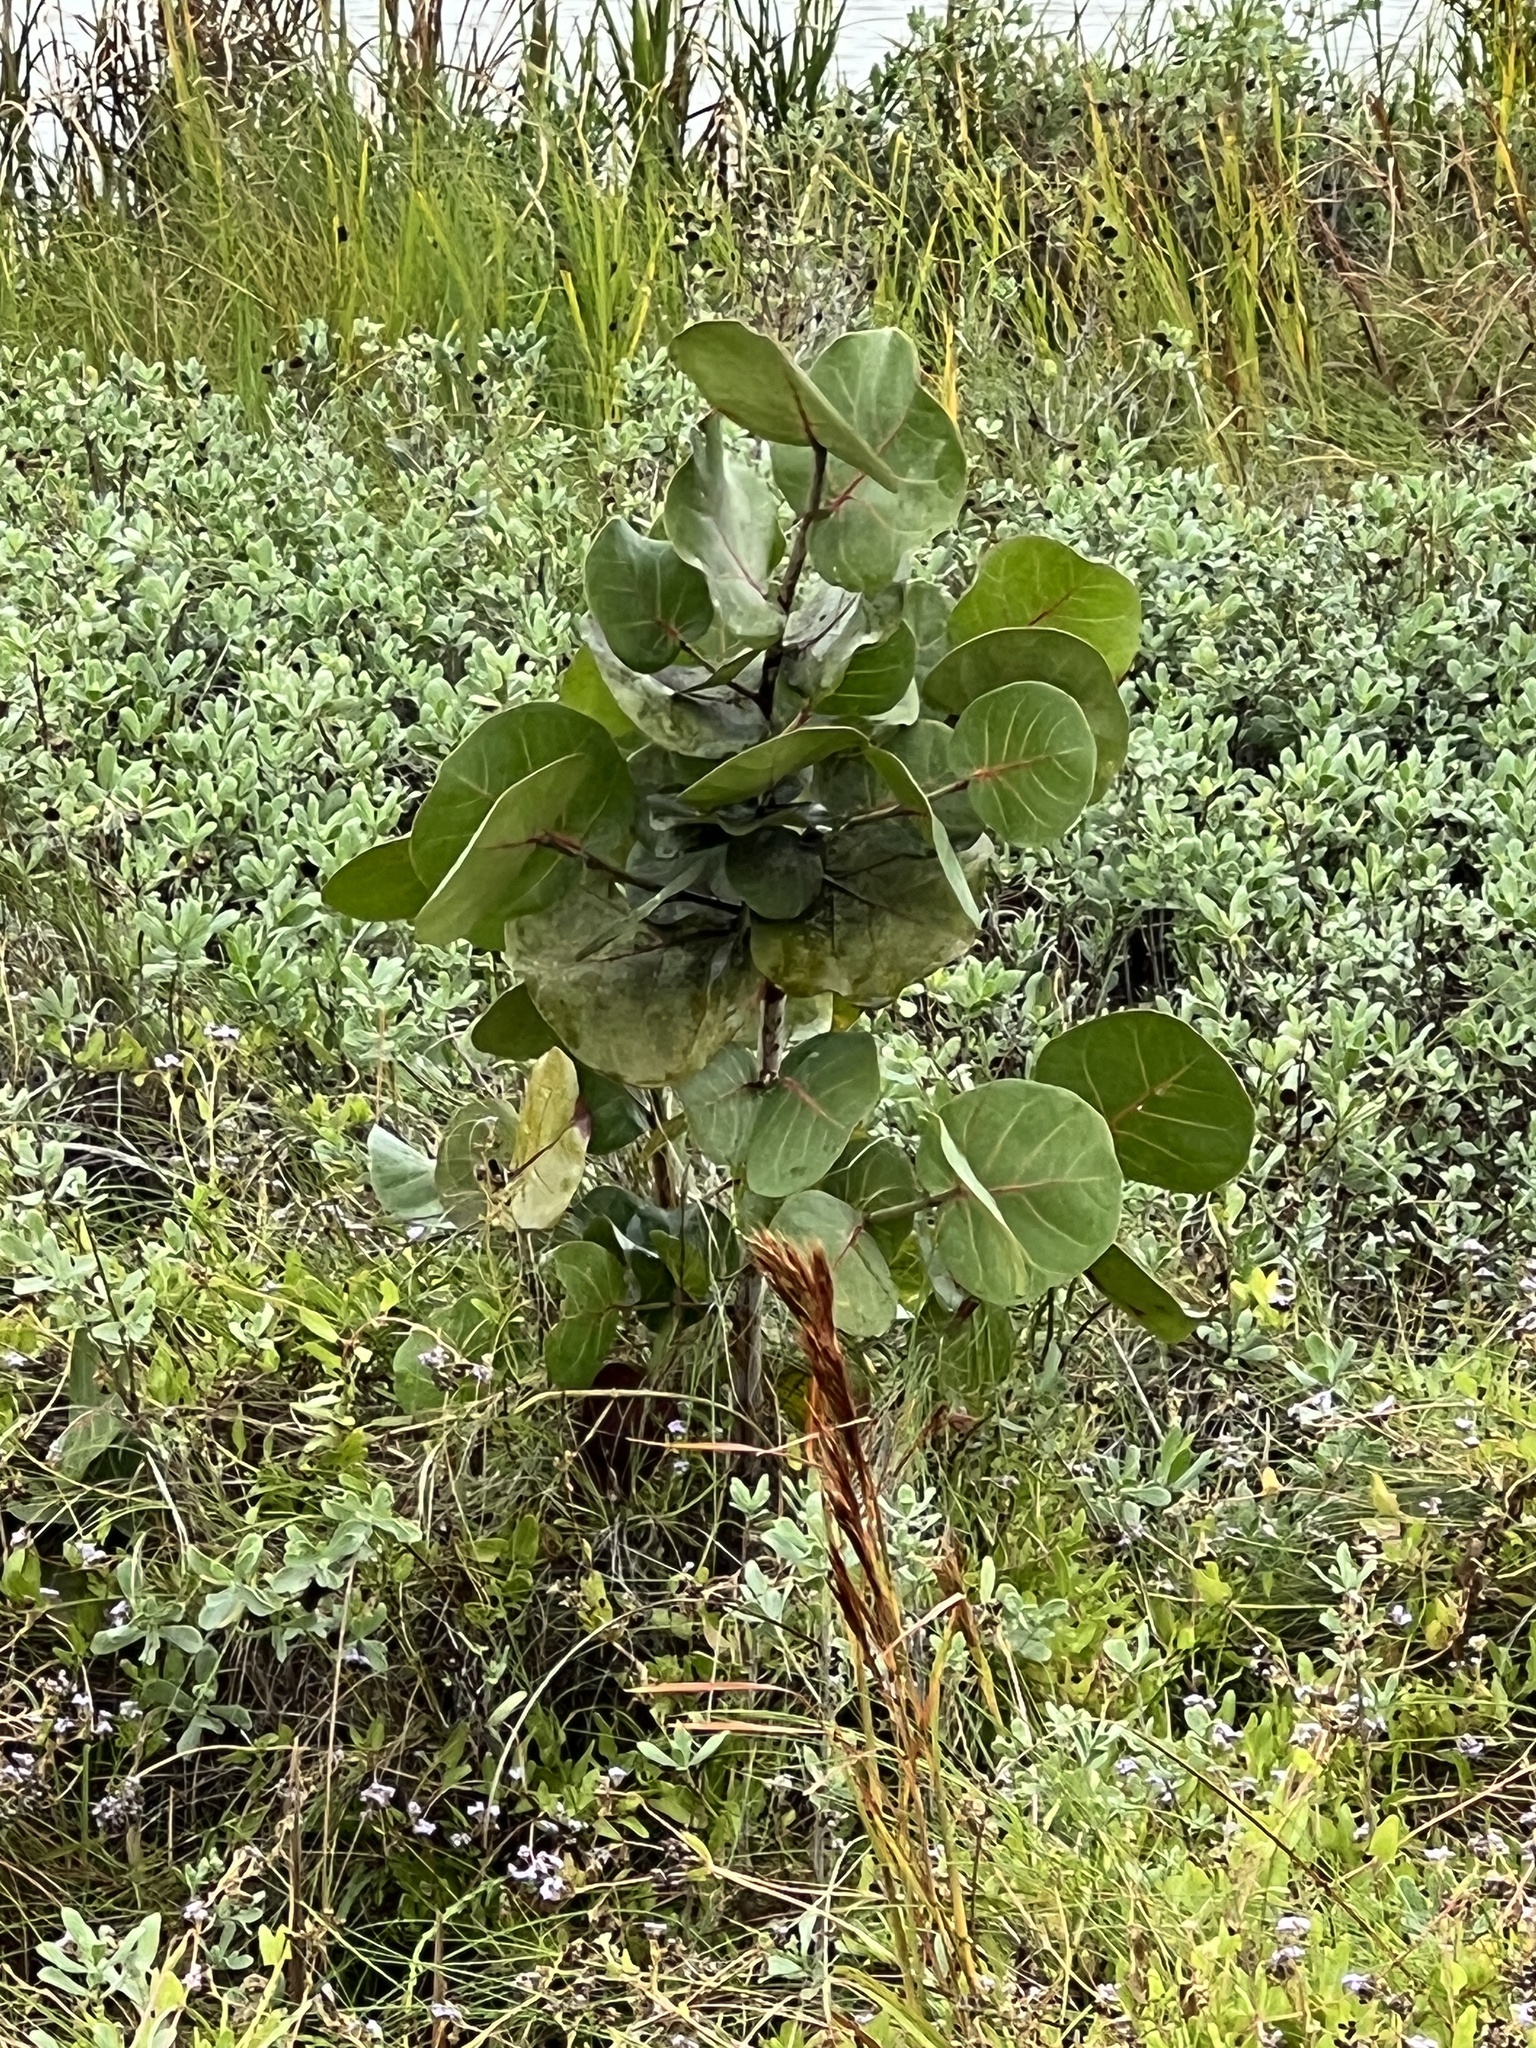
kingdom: Plantae
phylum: Tracheophyta
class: Magnoliopsida
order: Caryophyllales
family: Polygonaceae
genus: Coccoloba
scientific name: Coccoloba uvifera
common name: Seagrape
